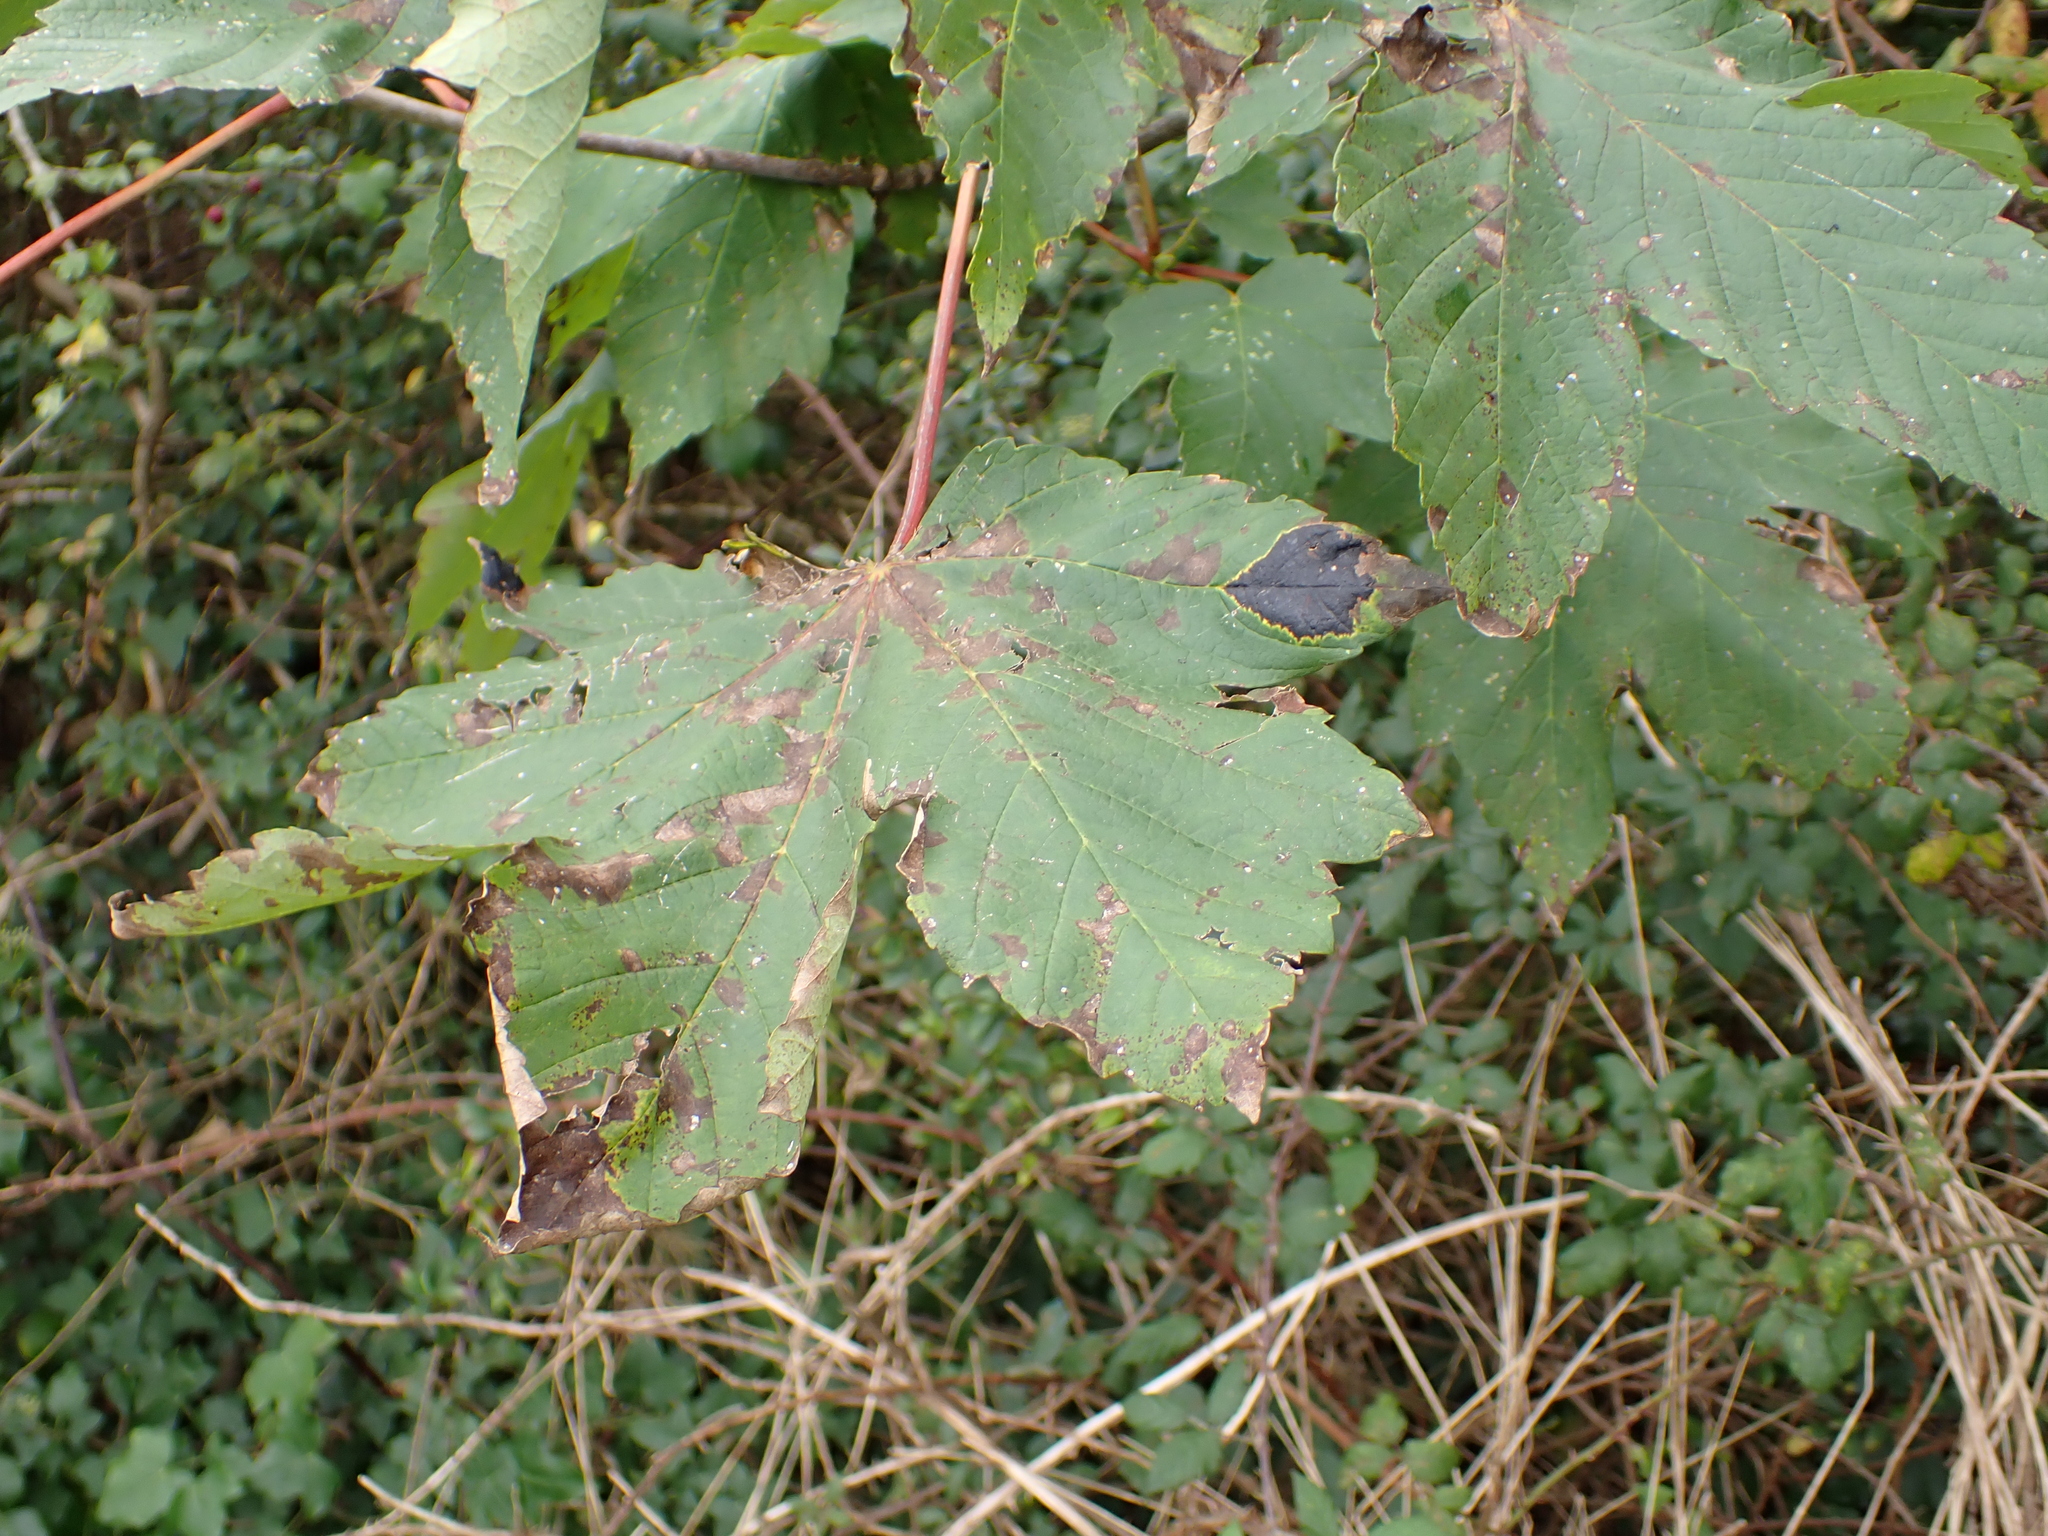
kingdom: Plantae
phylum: Tracheophyta
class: Magnoliopsida
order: Sapindales
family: Sapindaceae
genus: Acer
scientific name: Acer pseudoplatanus
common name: Sycamore
